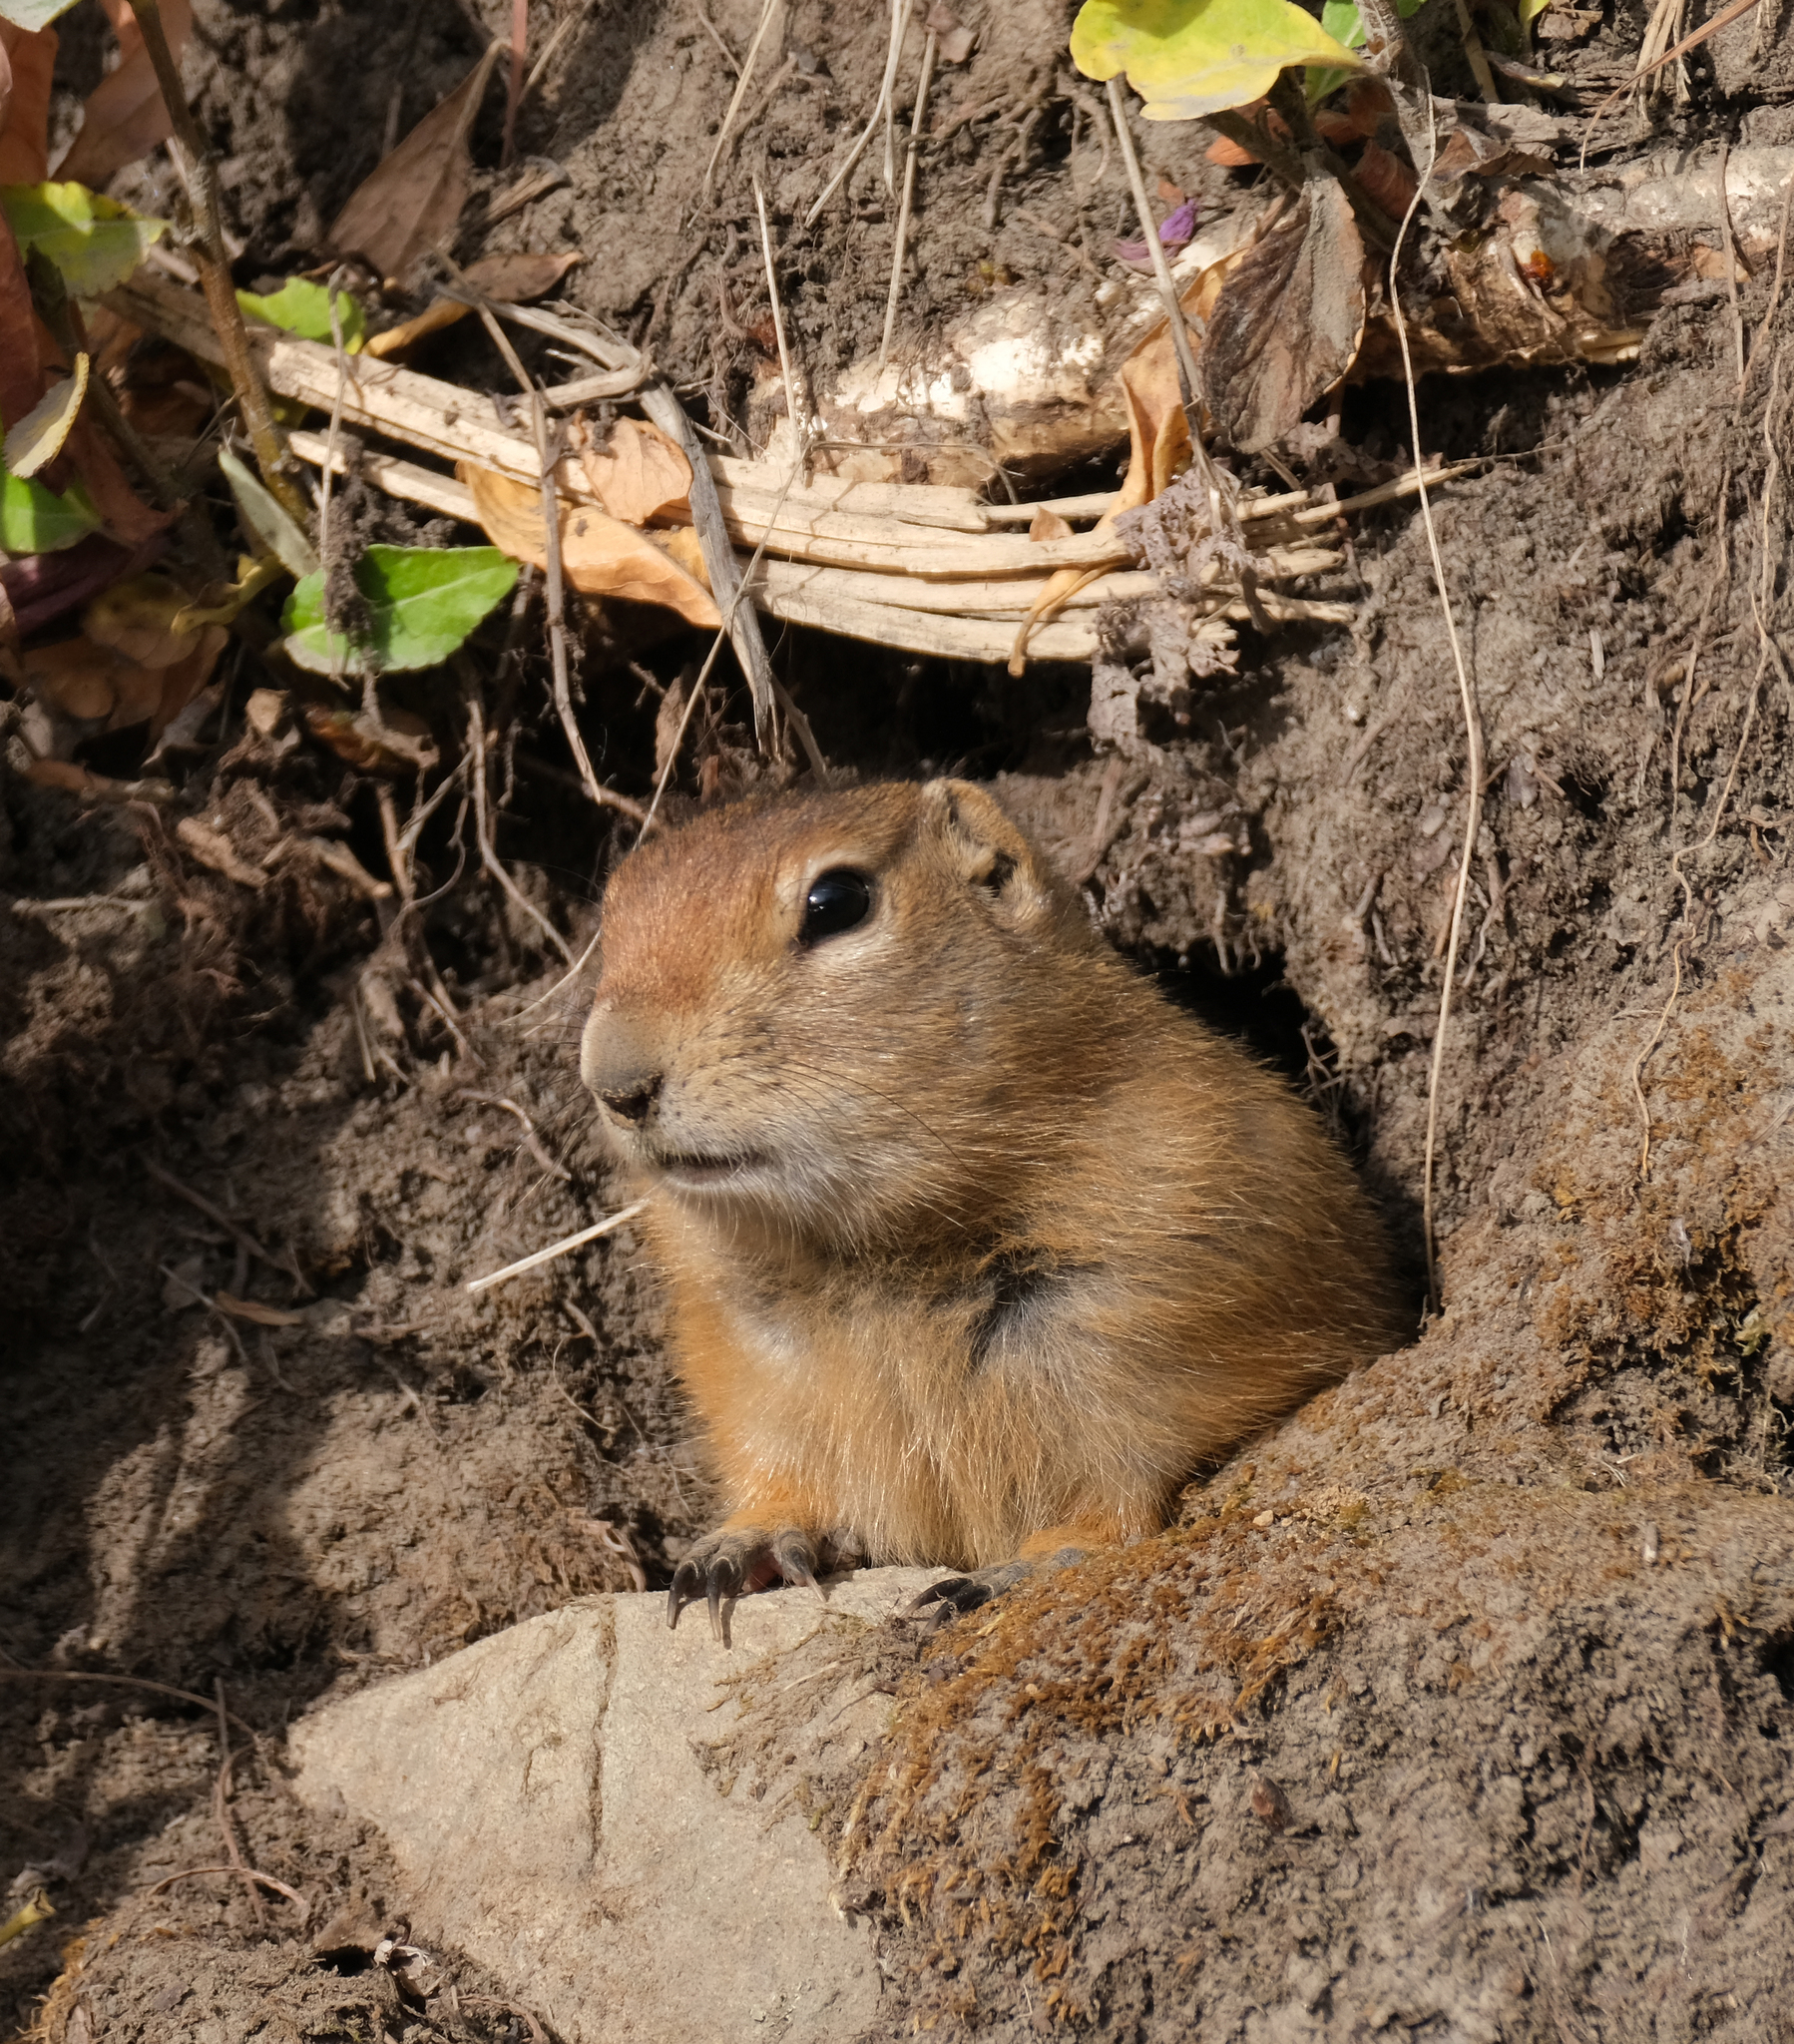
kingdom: Animalia
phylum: Chordata
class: Mammalia
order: Rodentia
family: Sciuridae
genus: Urocitellus
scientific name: Urocitellus parryii
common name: Arctic ground squirrel
